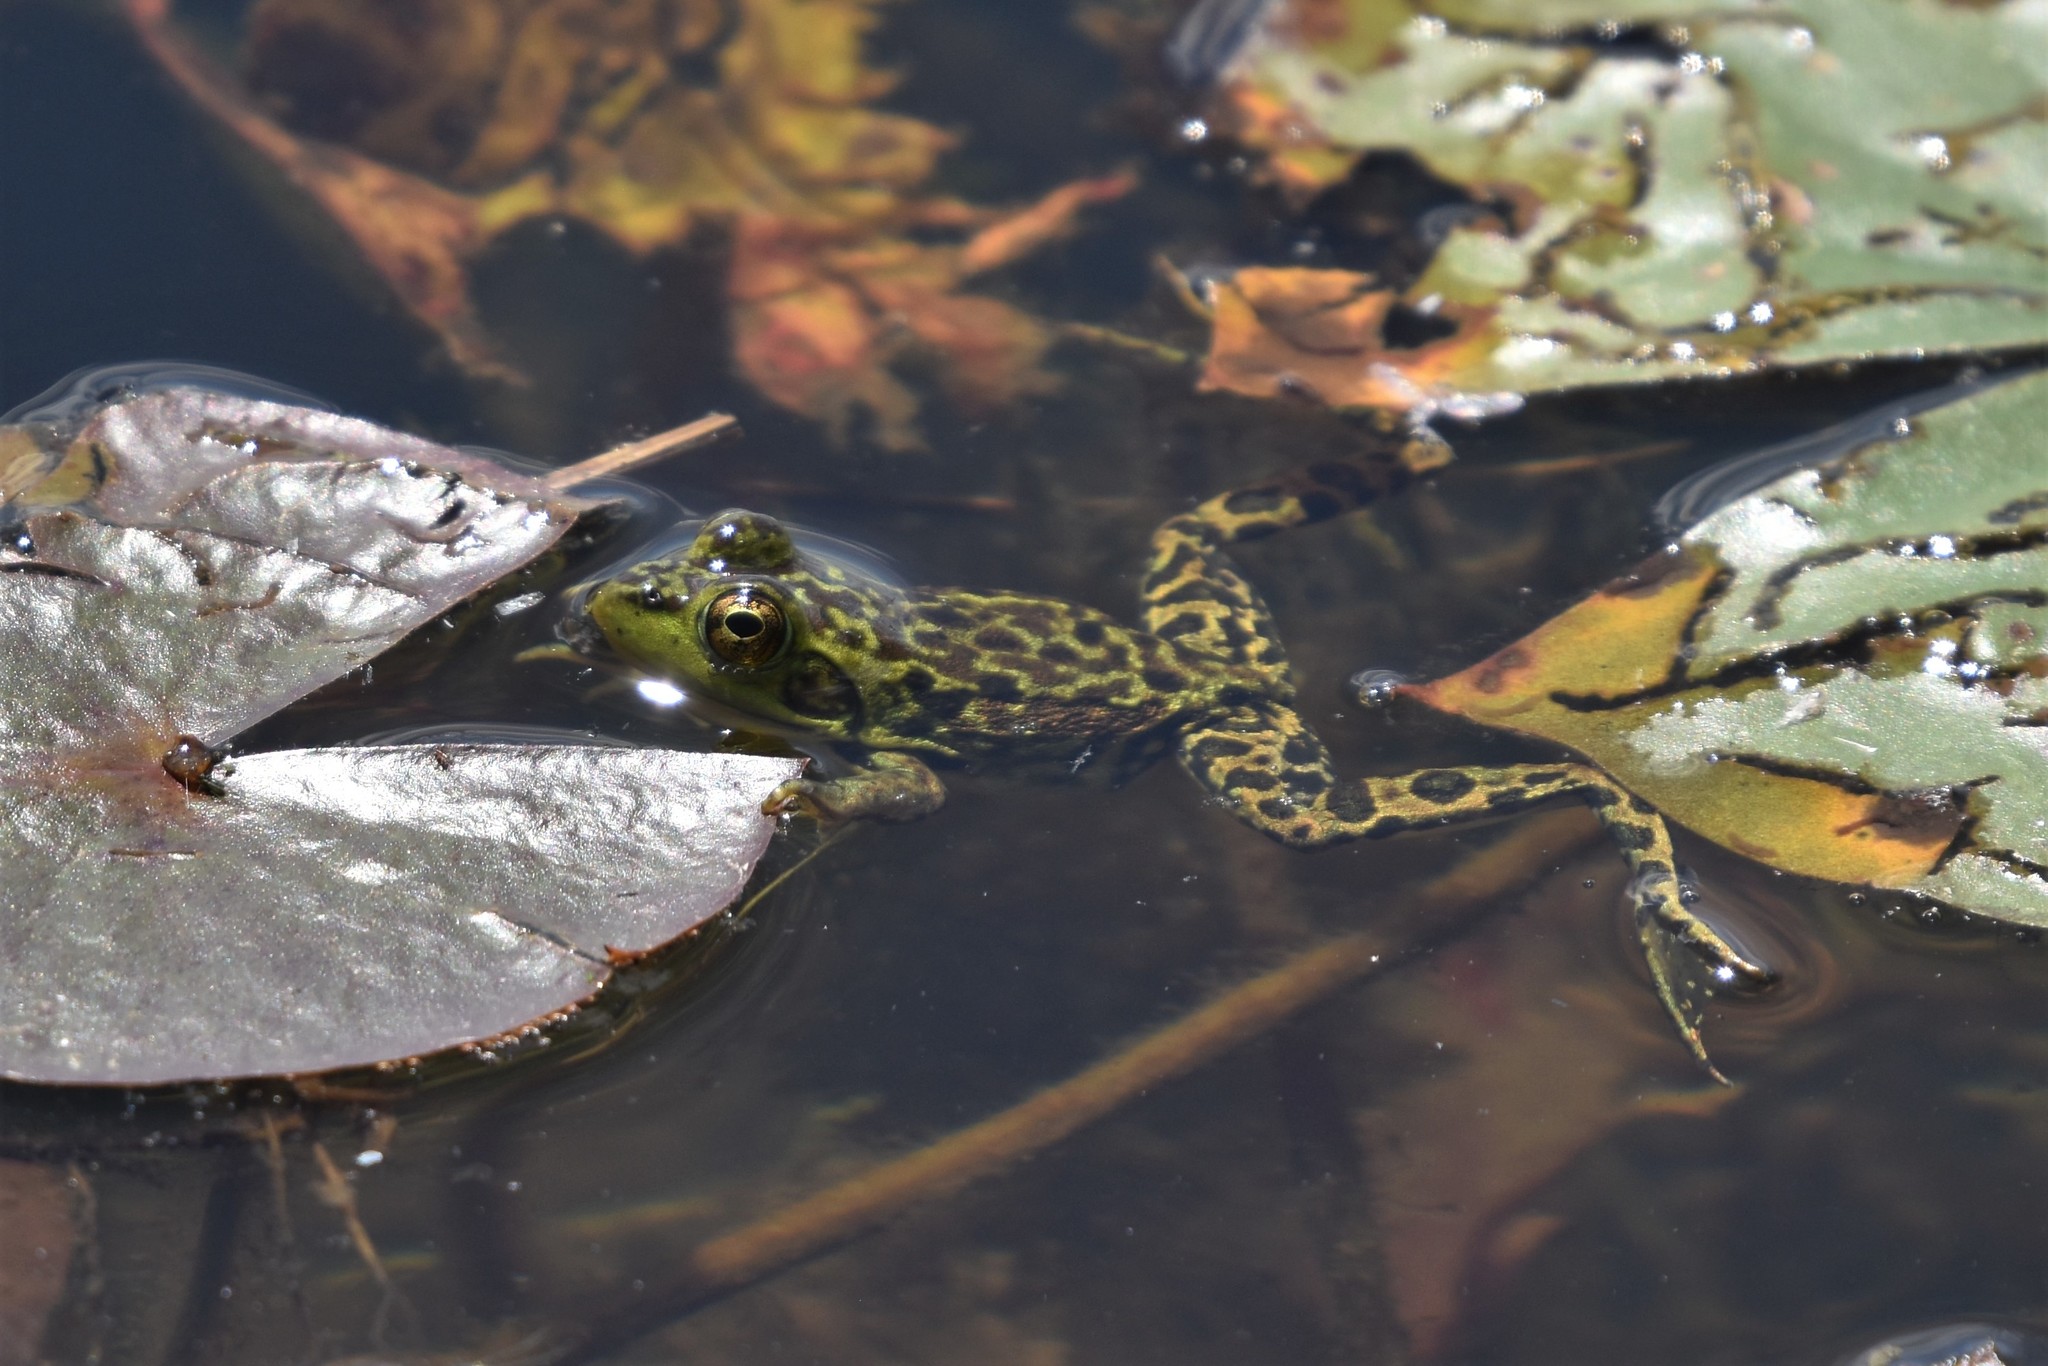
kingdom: Animalia
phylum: Chordata
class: Amphibia
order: Anura
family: Ranidae
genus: Lithobates
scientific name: Lithobates septentrionalis
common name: Mink frog
